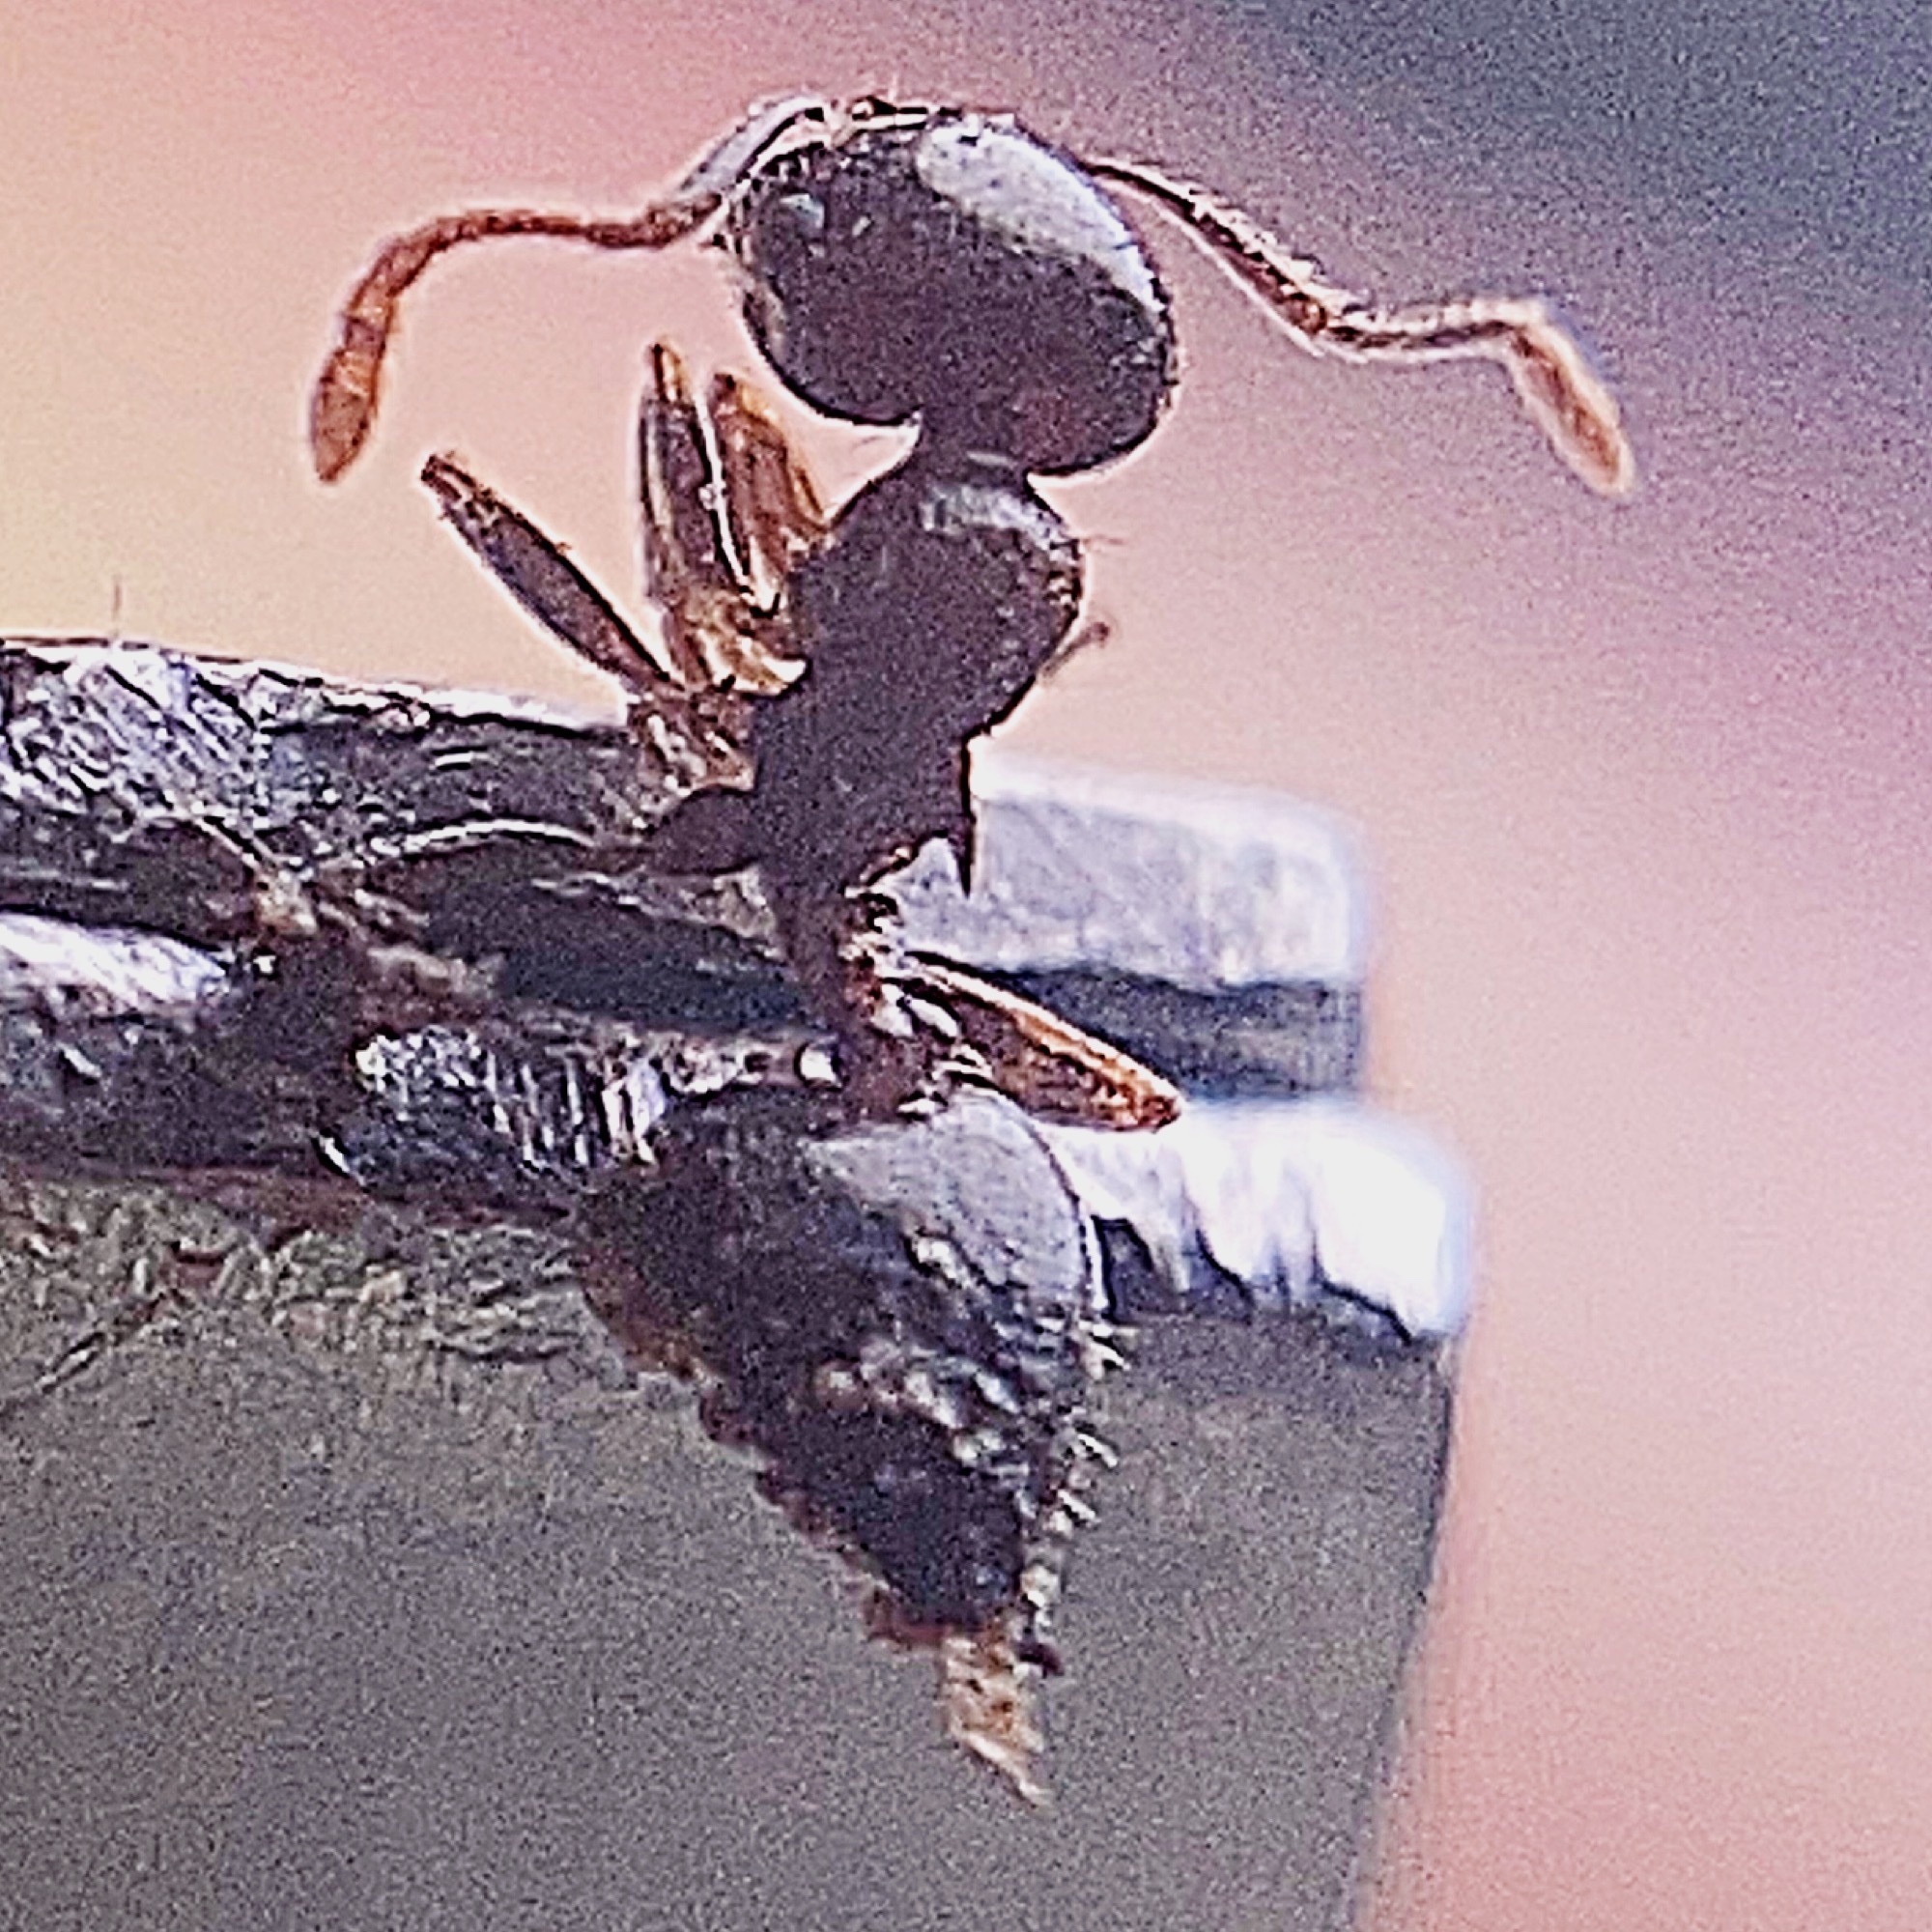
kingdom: Animalia
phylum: Arthropoda
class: Insecta
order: Hymenoptera
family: Formicidae
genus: Crematogaster
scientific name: Crematogaster ashmeadi
